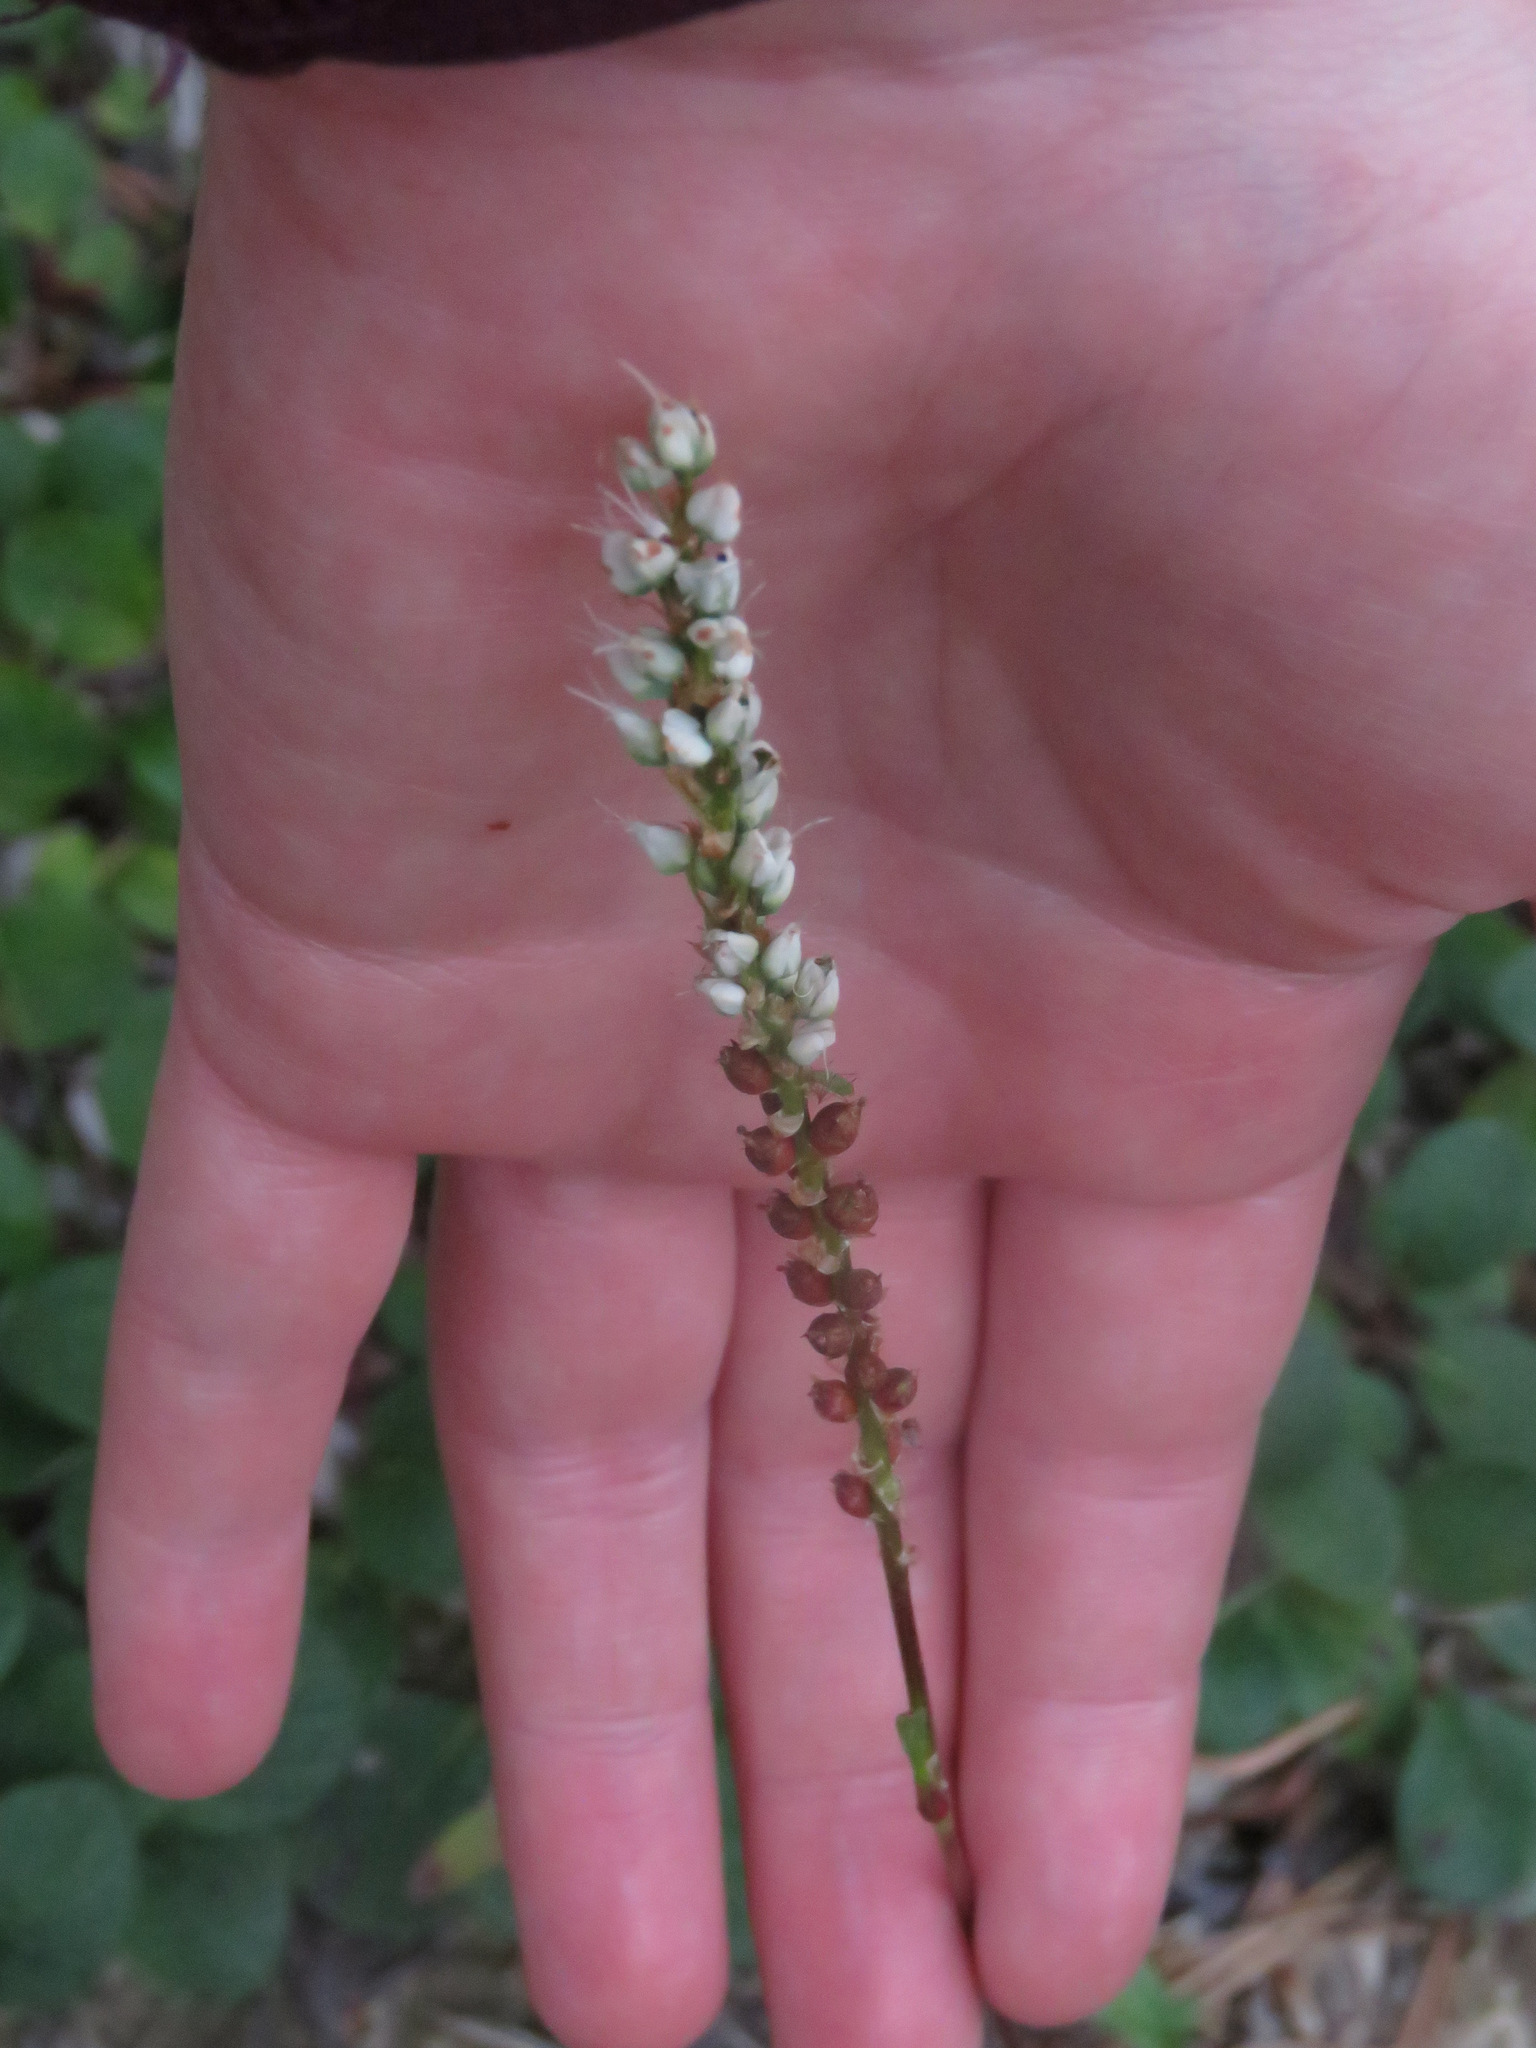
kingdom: Plantae
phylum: Tracheophyta
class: Magnoliopsida
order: Caryophyllales
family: Polygonaceae
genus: Bistorta
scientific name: Bistorta vivipara
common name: Alpine bistort
